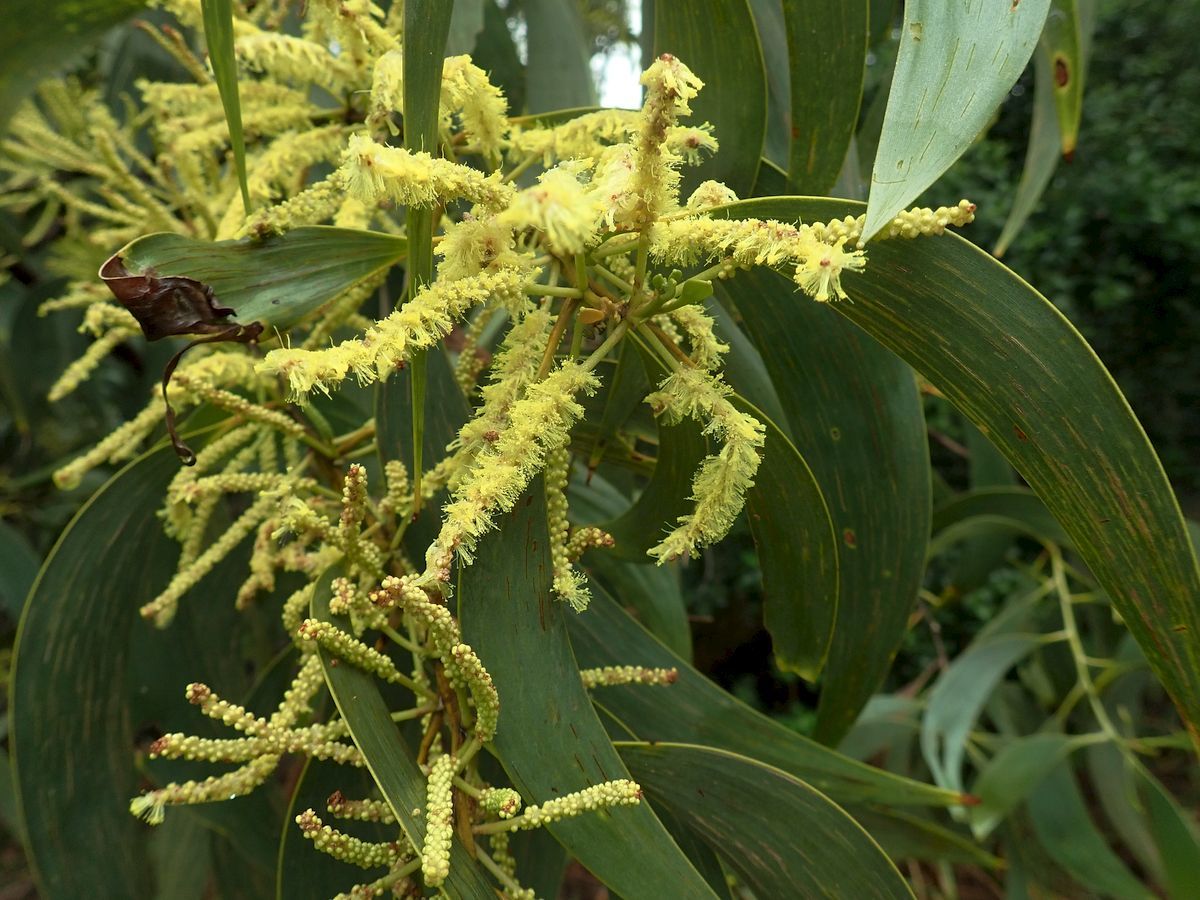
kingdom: Plantae
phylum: Tracheophyta
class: Magnoliopsida
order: Fabales
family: Fabaceae
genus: Acacia
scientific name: Acacia crassicarpa
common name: Northern wattle
